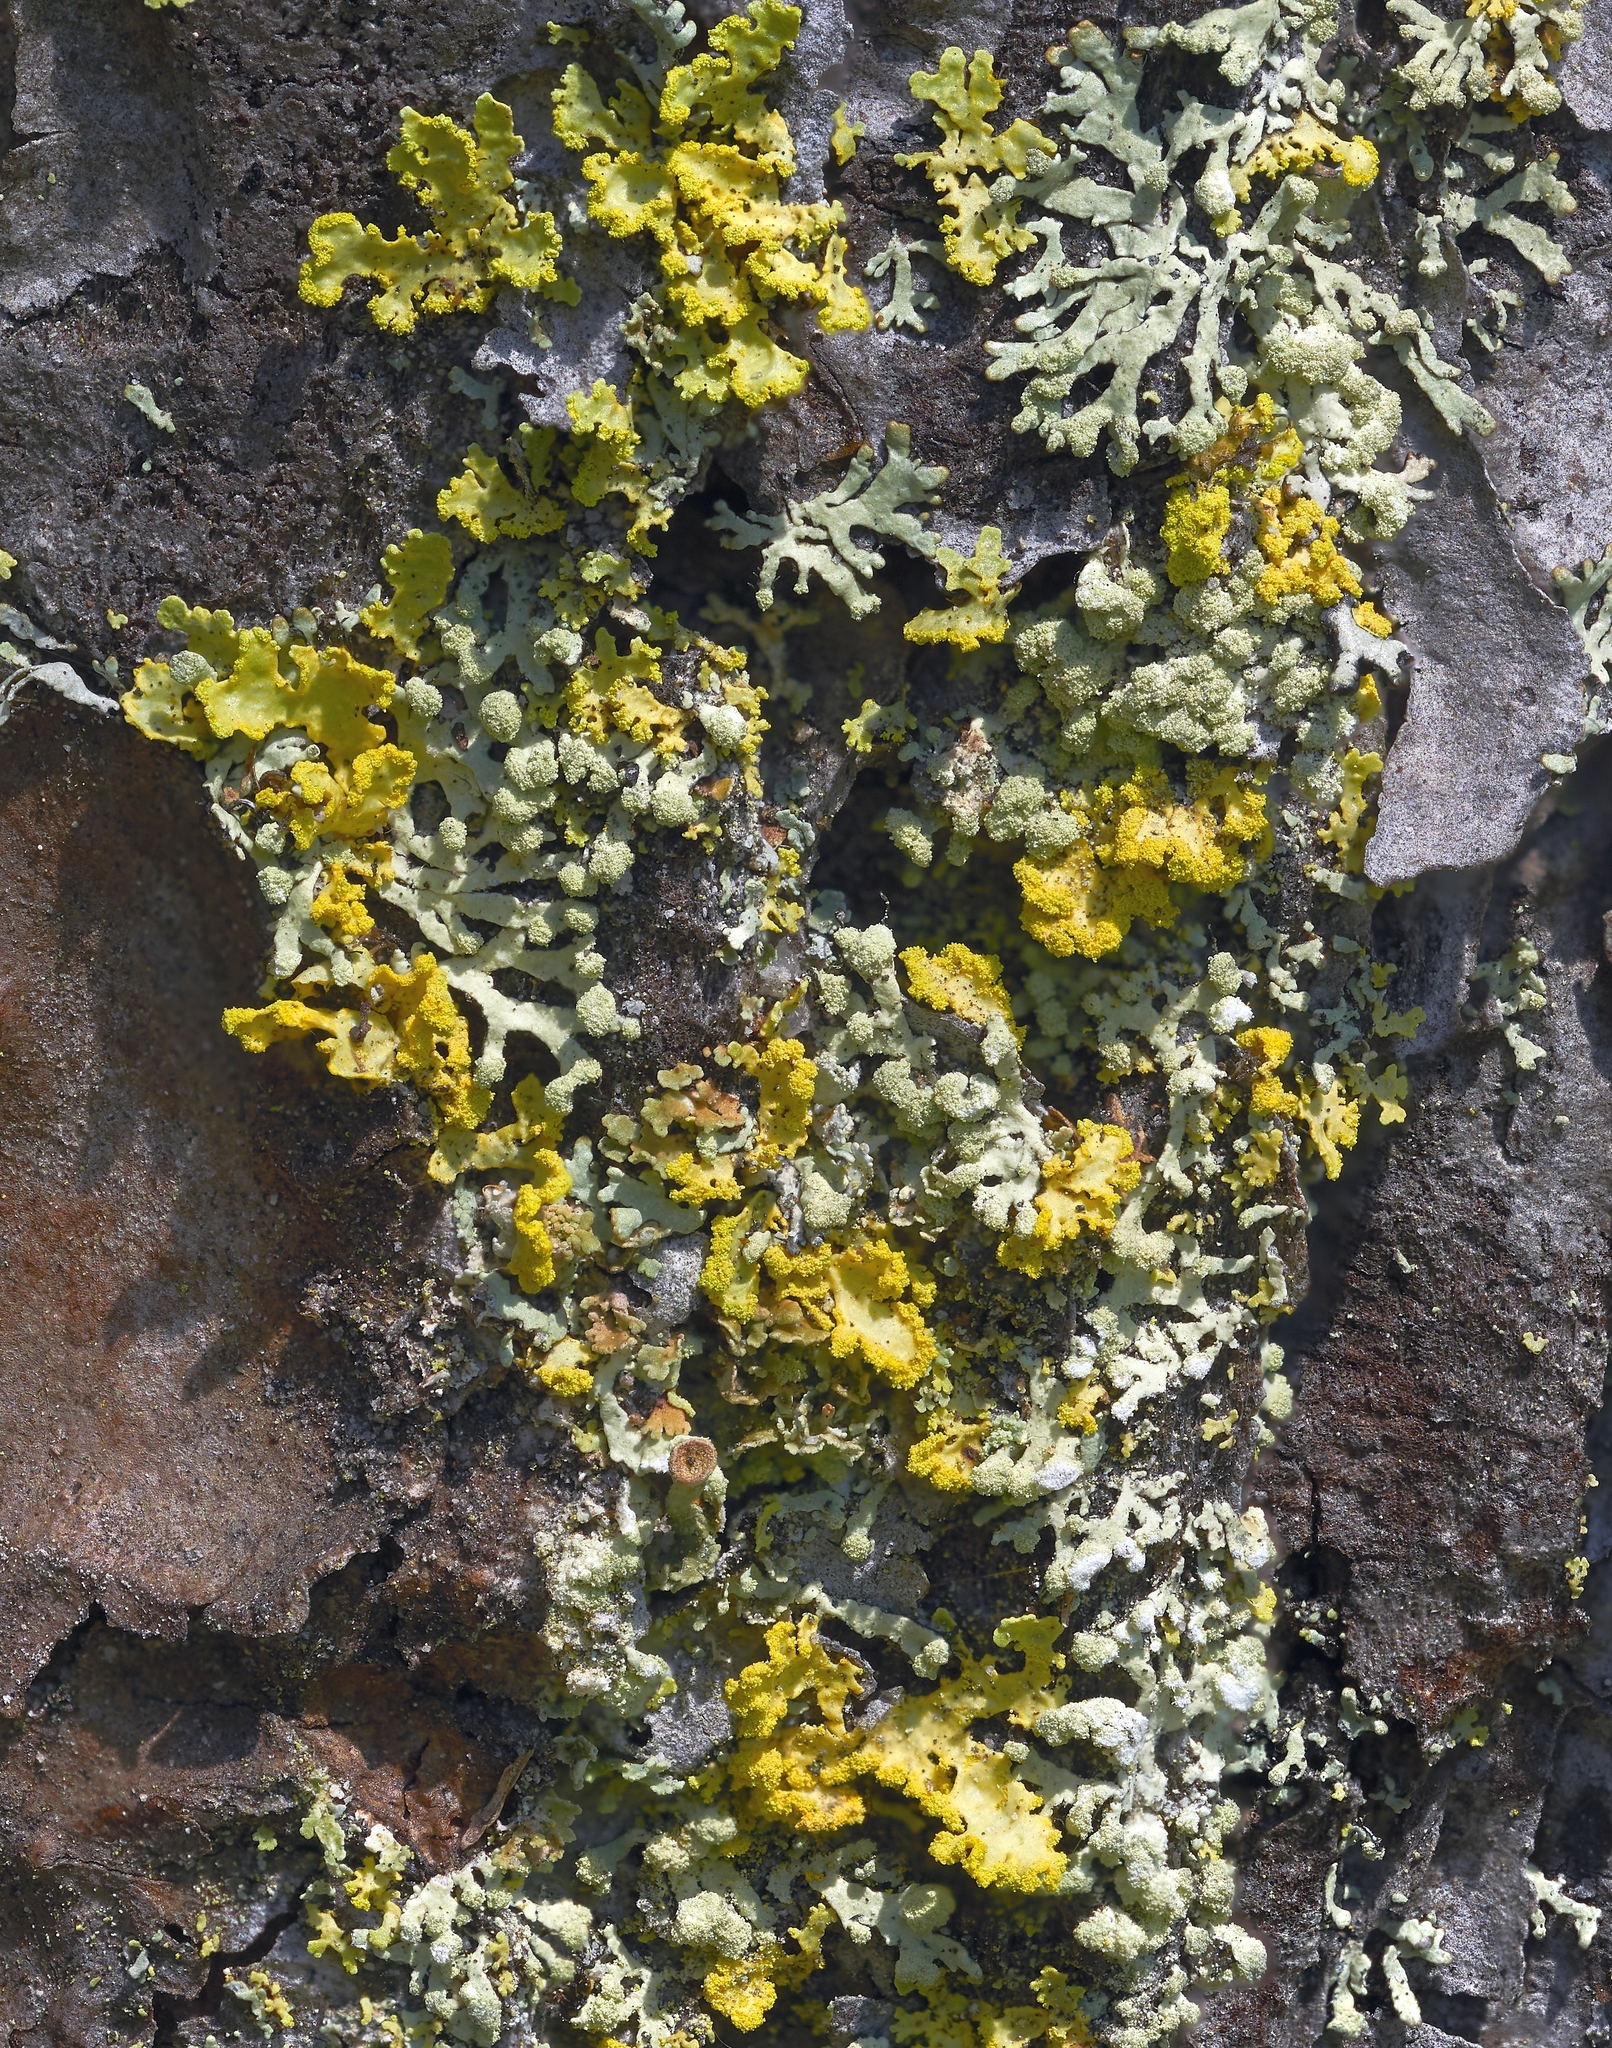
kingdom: Fungi
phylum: Ascomycota
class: Lecanoromycetes
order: Lecanorales
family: Parmeliaceae
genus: Vulpicida
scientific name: Vulpicida pinastri
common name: Powdered sunshine lichen
